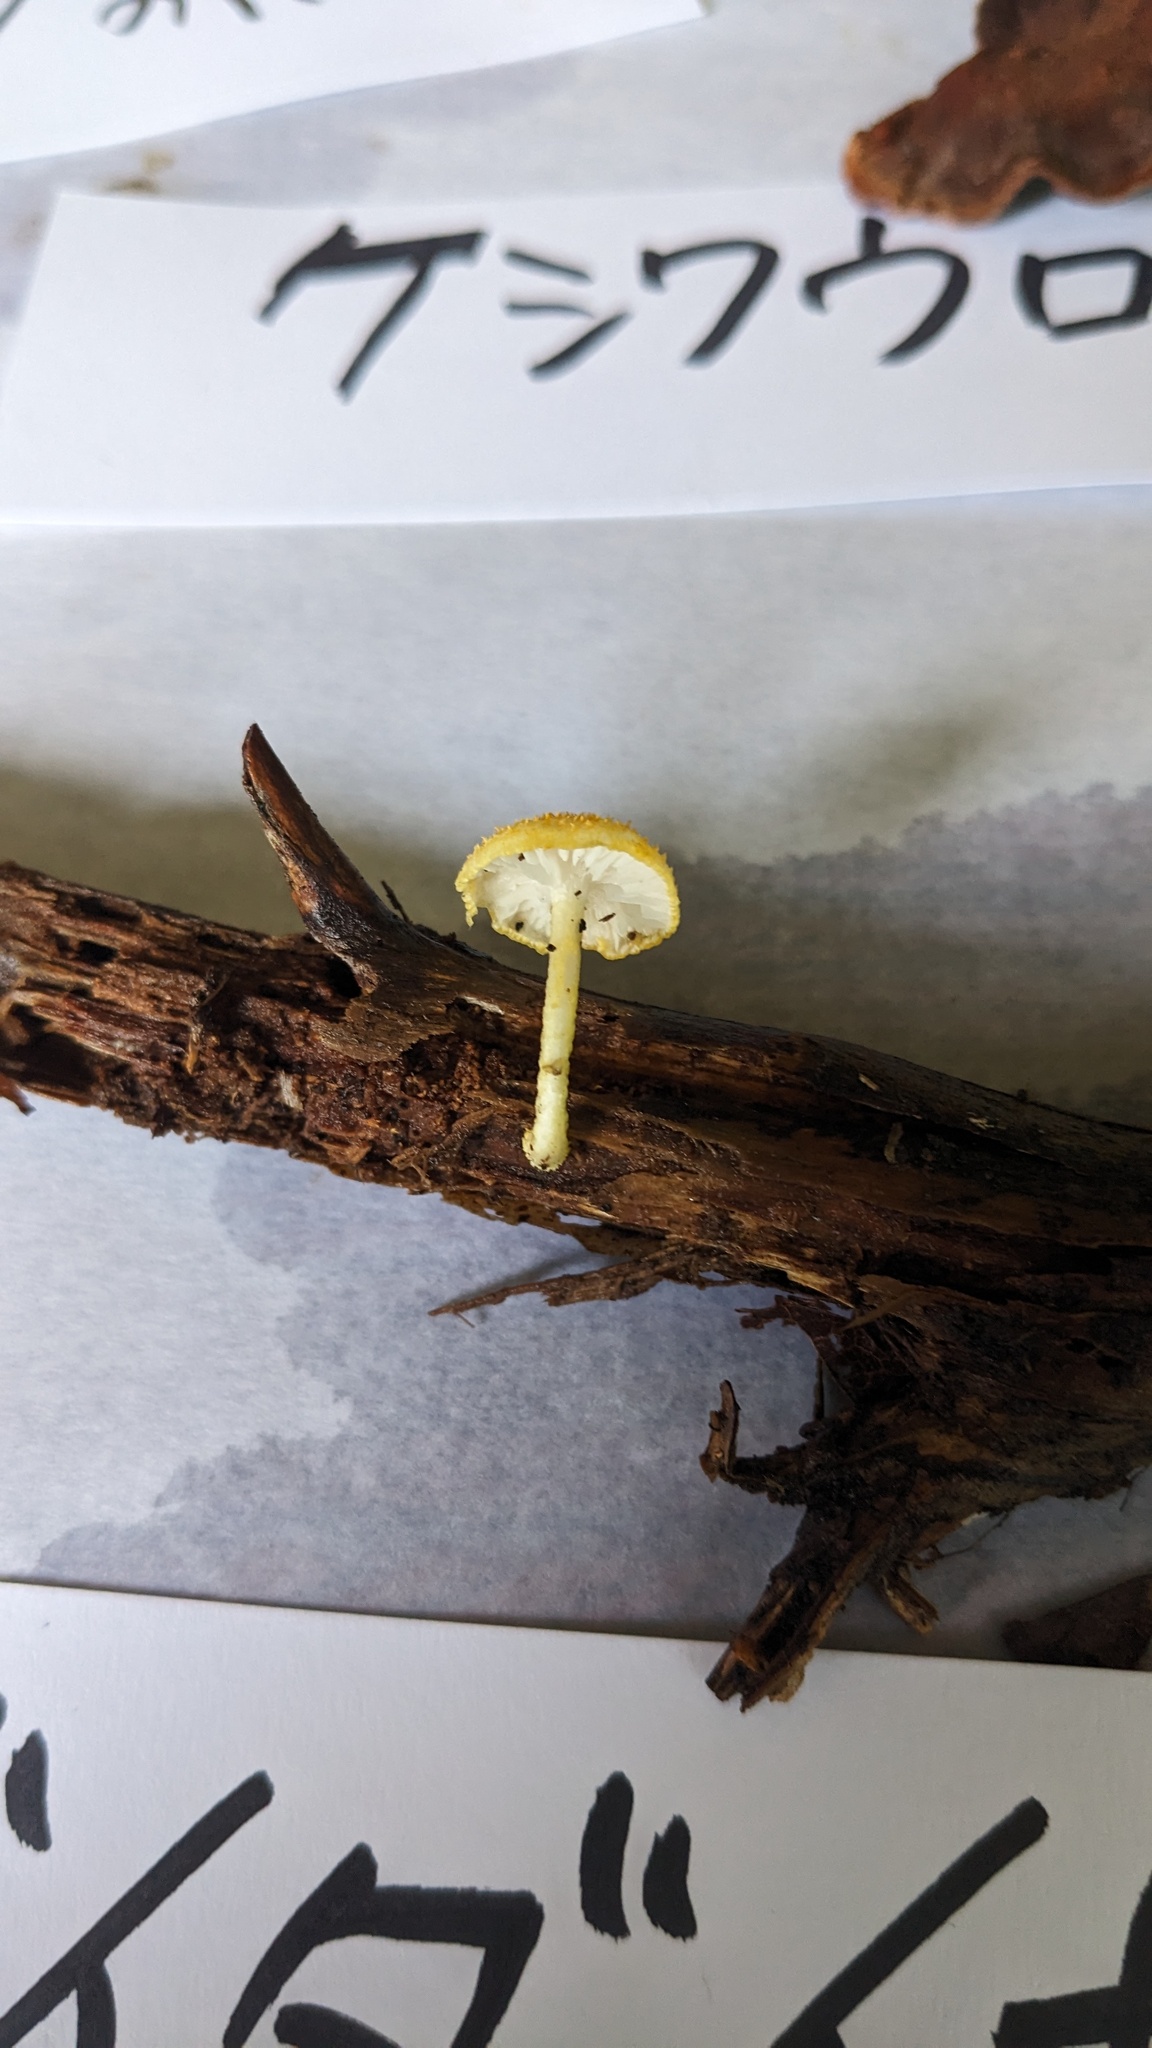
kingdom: Fungi
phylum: Basidiomycota
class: Agaricomycetes
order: Agaricales
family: Physalacriaceae
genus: Cyptotrama
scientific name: Cyptotrama asprata
